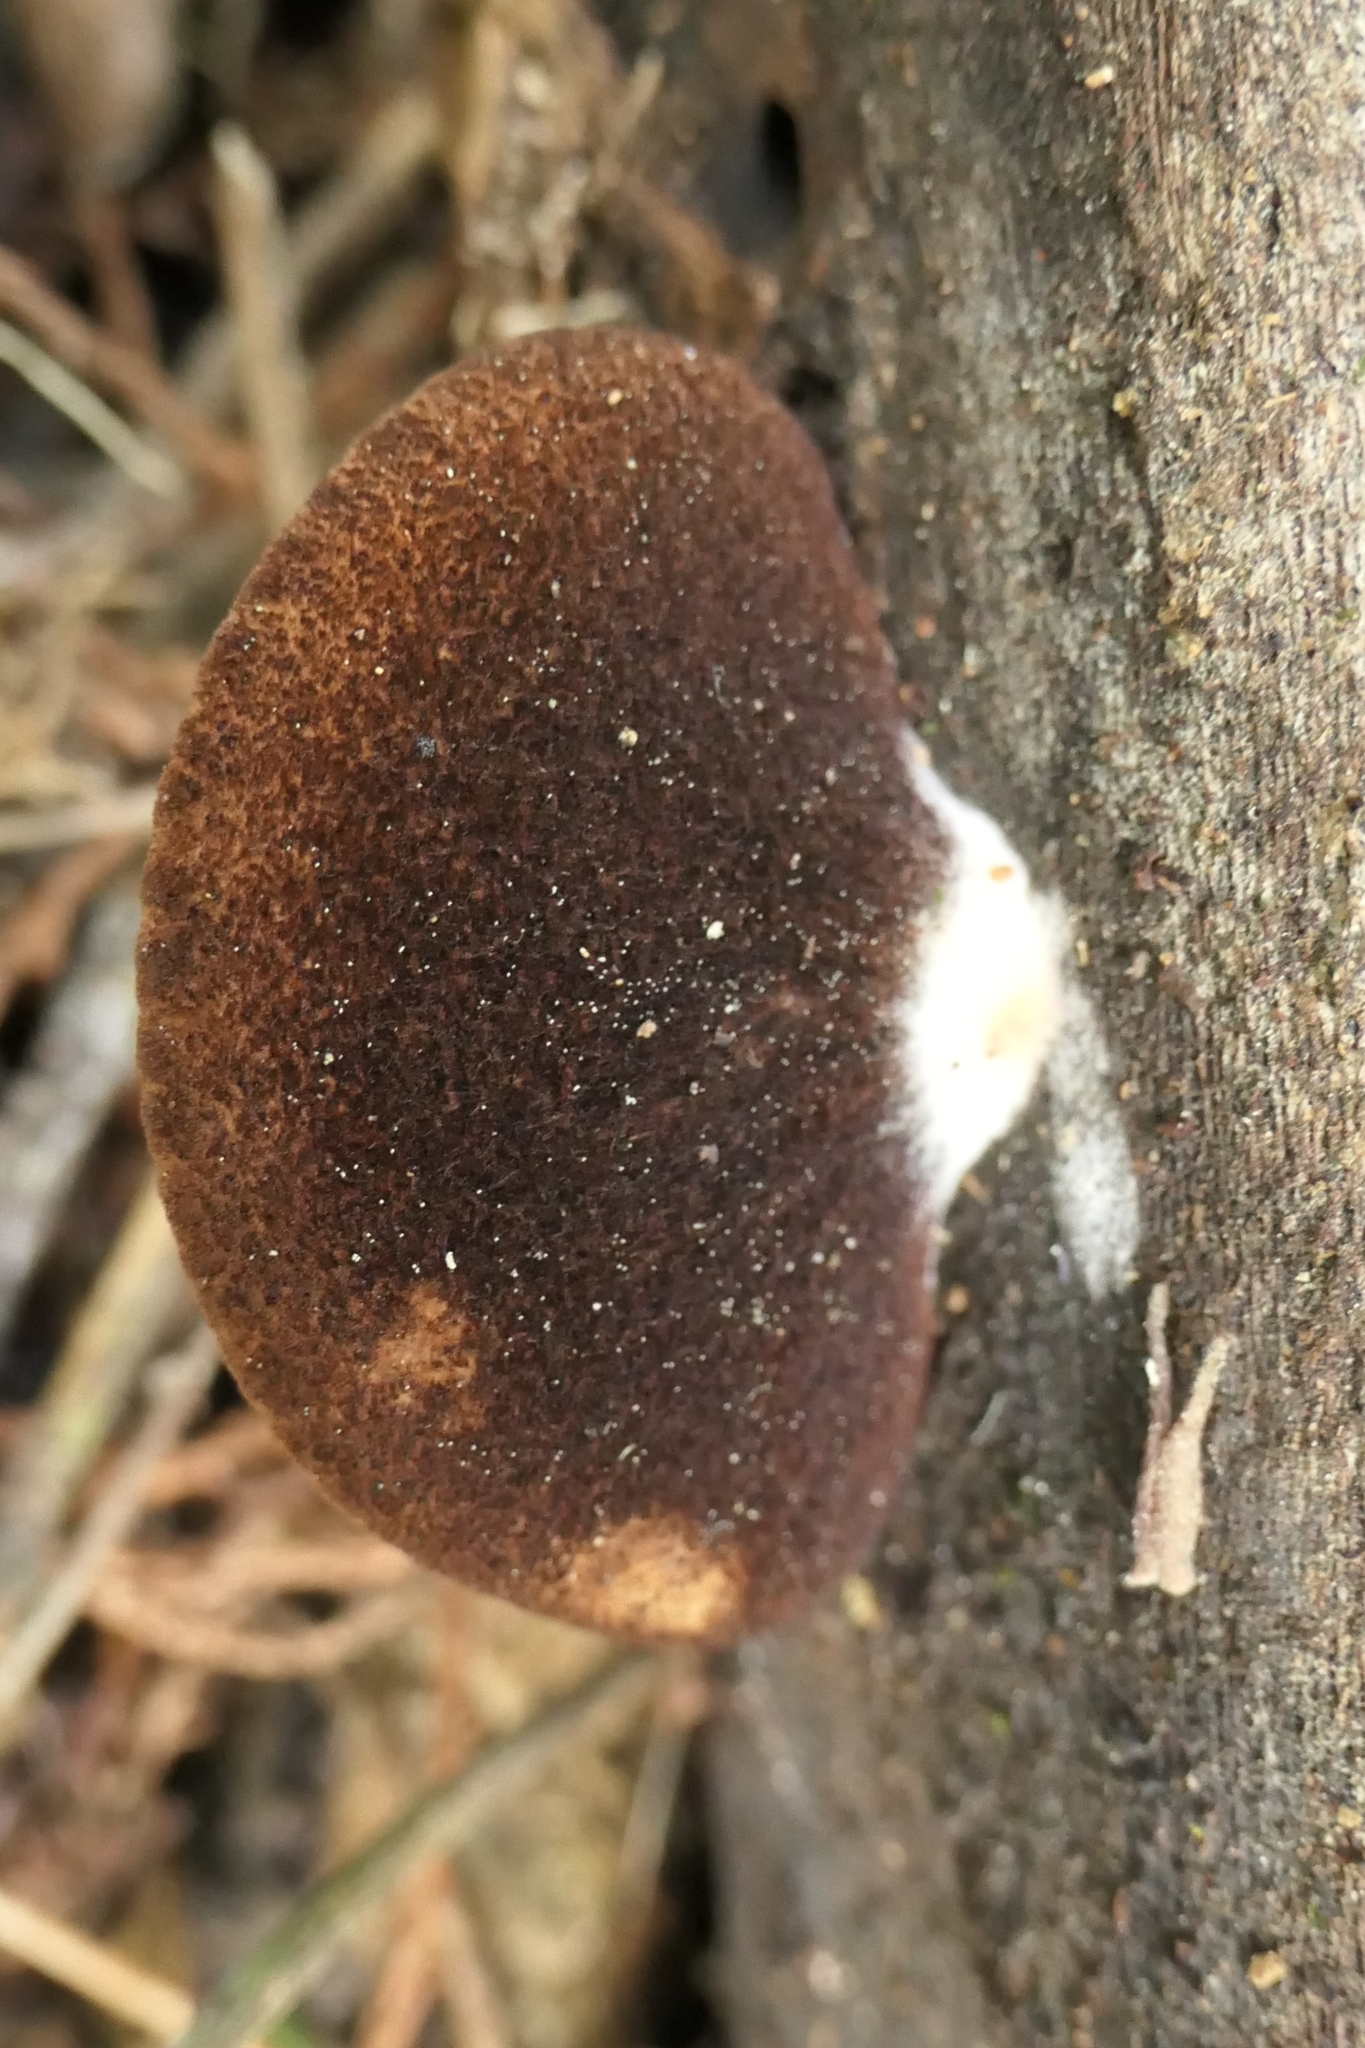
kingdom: Fungi
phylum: Basidiomycota
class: Agaricomycetes
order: Agaricales
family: Crepidotaceae
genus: Crepidotus
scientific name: Crepidotus fuscovelutinus
